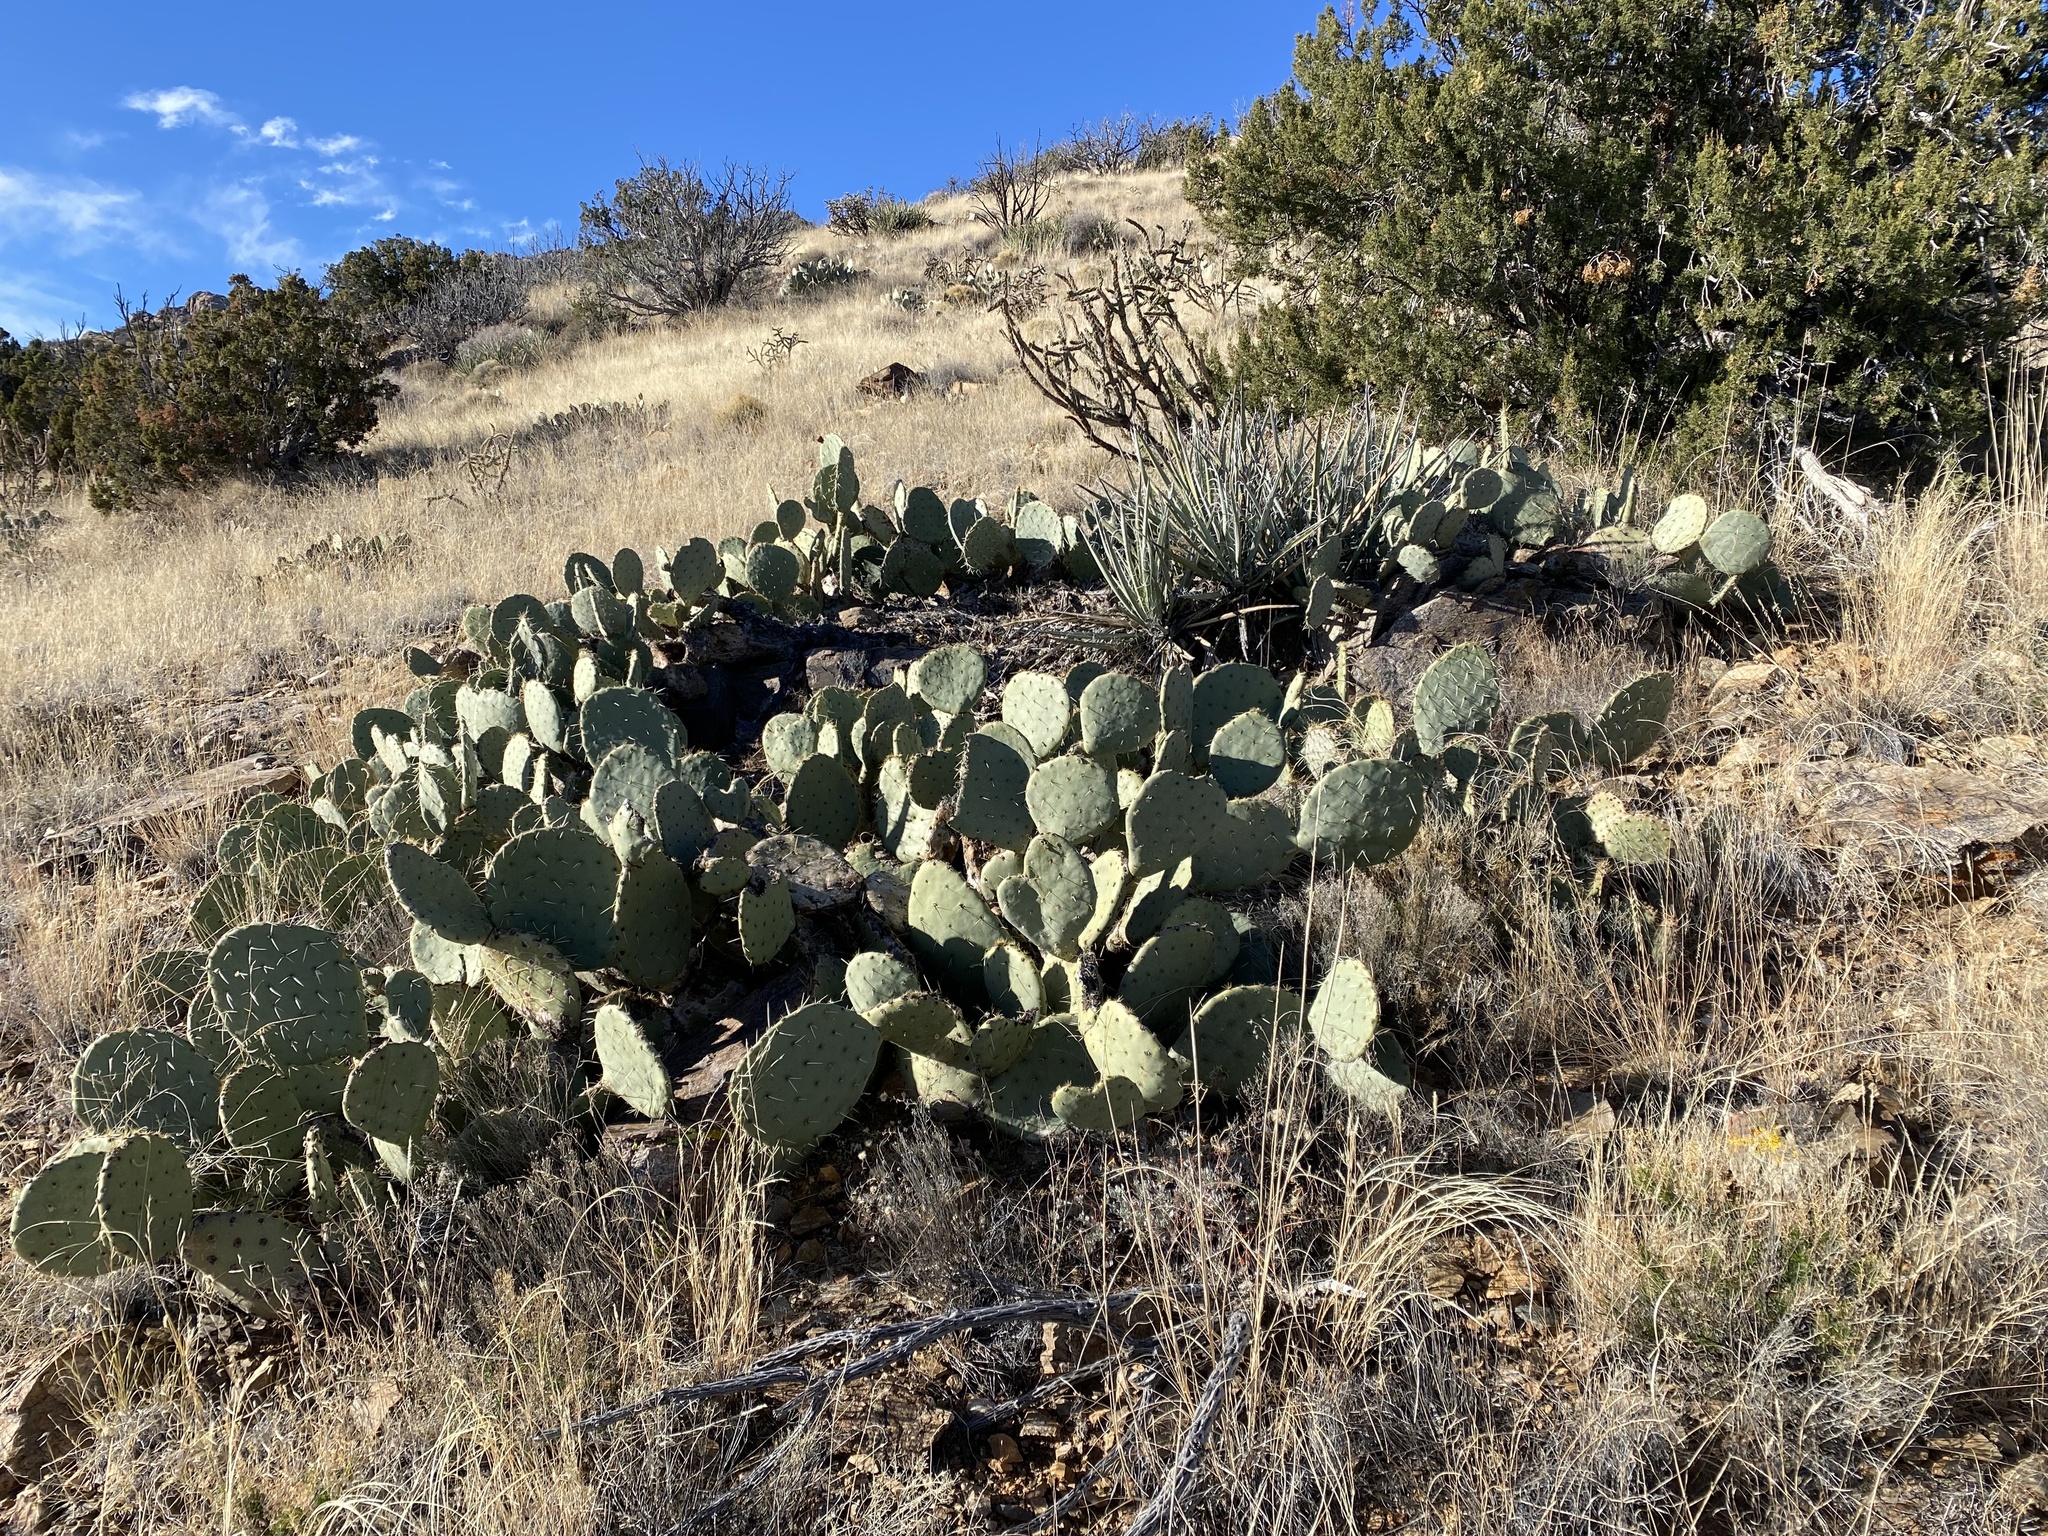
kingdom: Plantae
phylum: Tracheophyta
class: Magnoliopsida
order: Caryophyllales
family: Cactaceae
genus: Opuntia
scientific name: Opuntia engelmannii
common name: Cactus-apple
